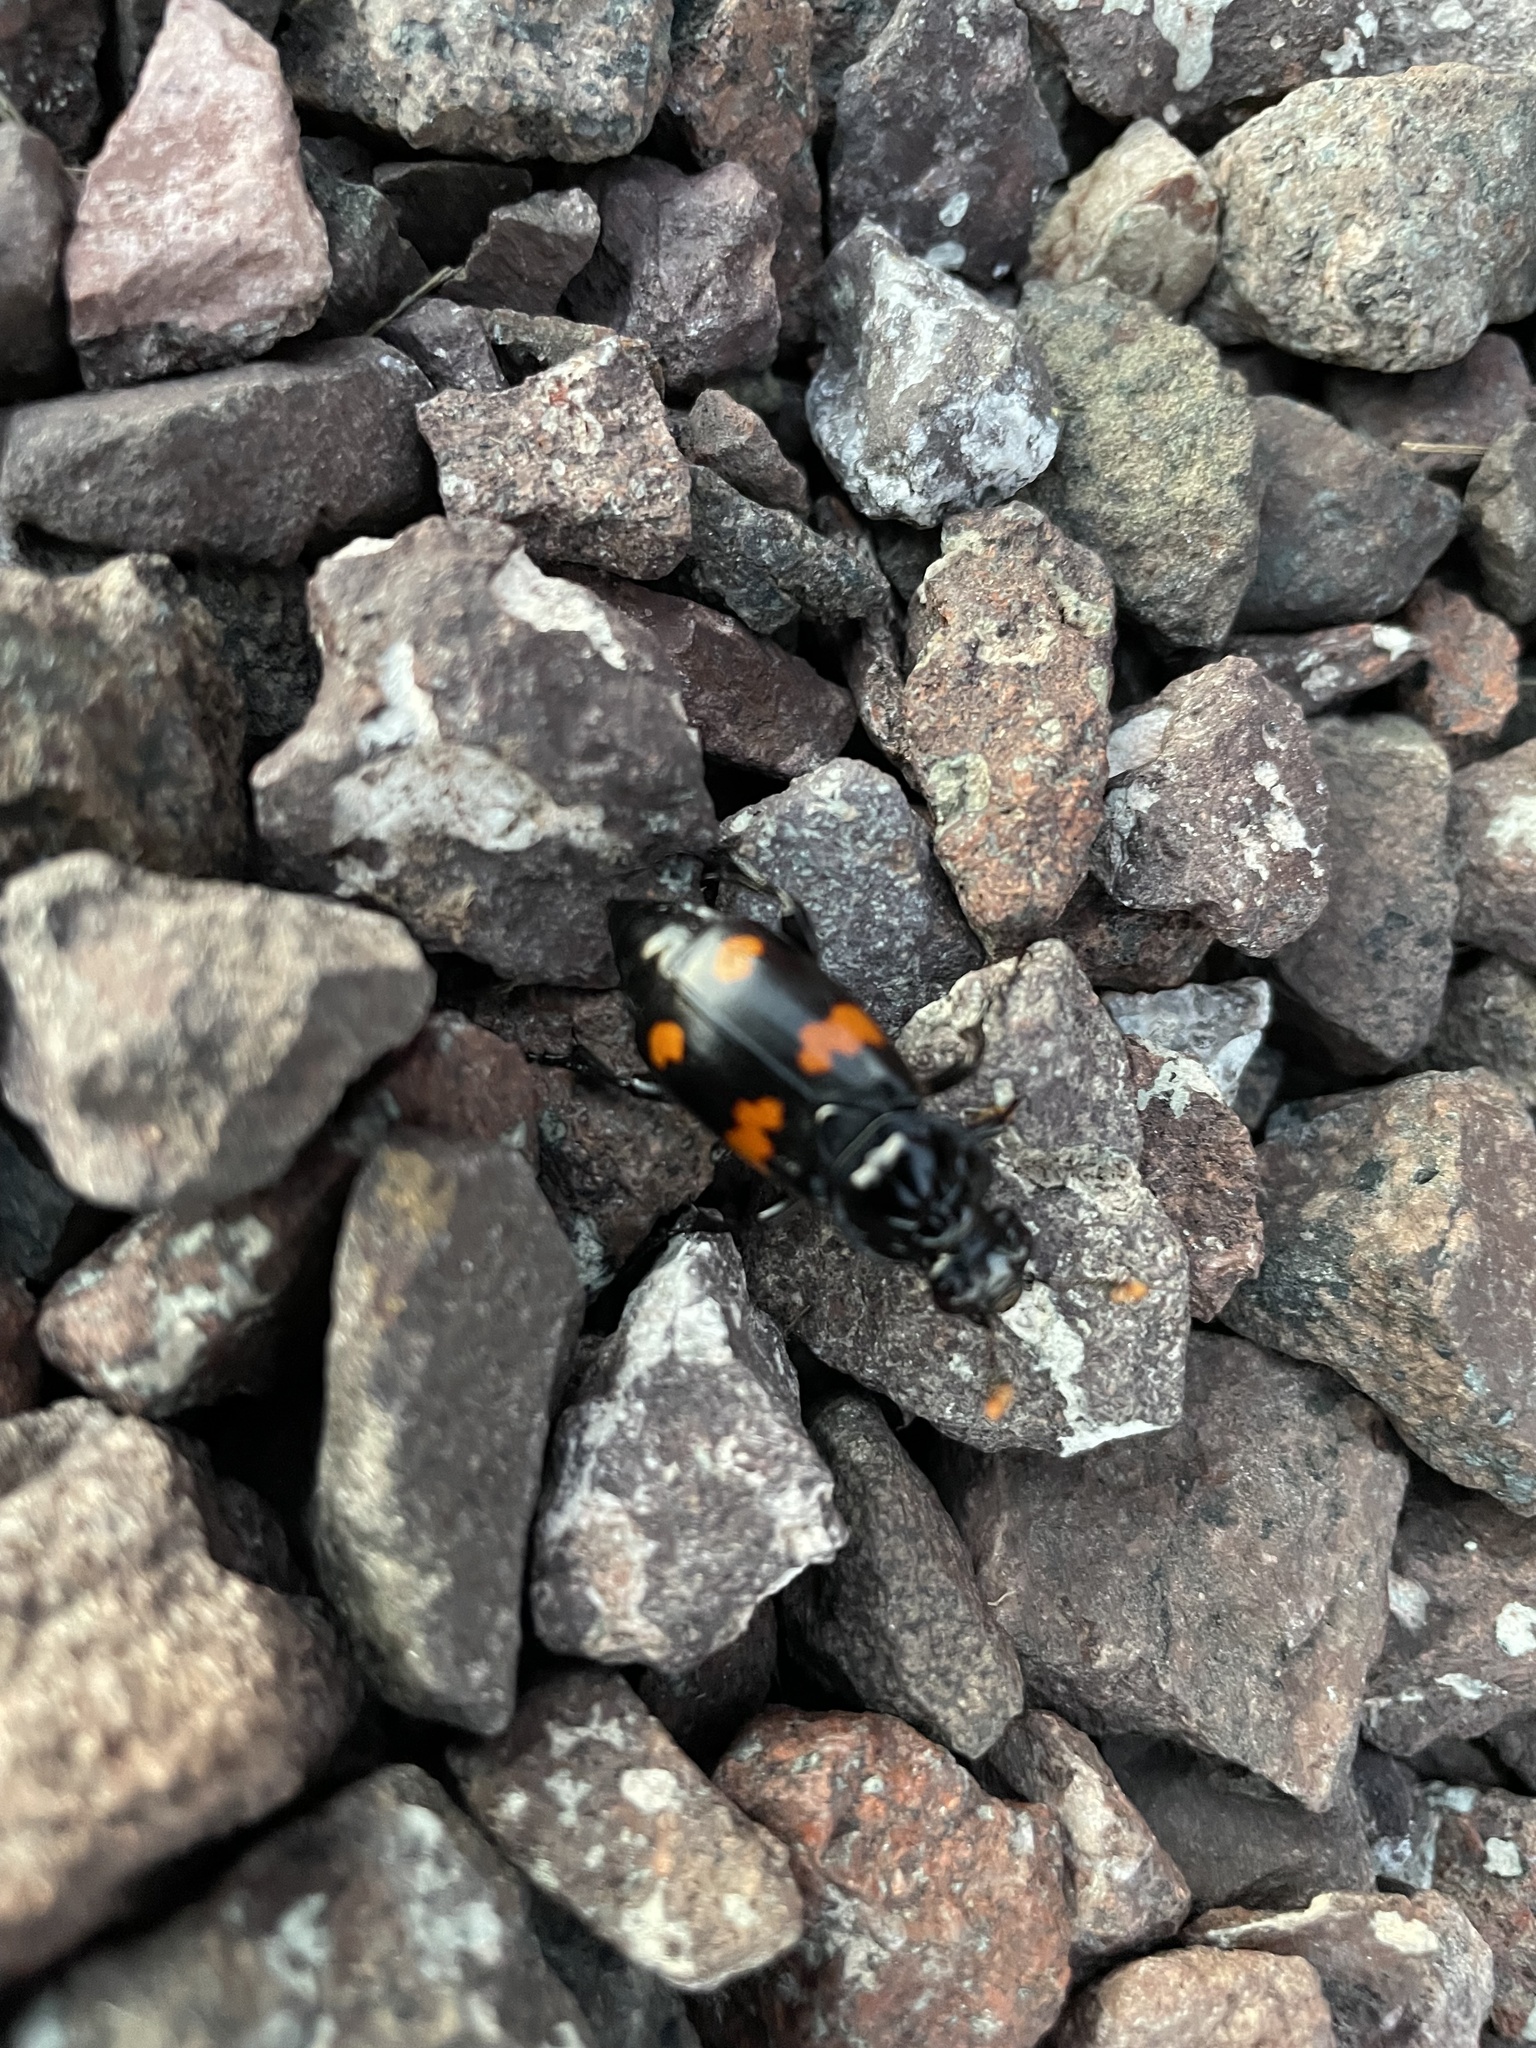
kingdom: Animalia
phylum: Arthropoda
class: Insecta
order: Coleoptera
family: Staphylinidae
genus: Nicrophorus
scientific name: Nicrophorus orbicollis
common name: Roundneck sexton beetle
